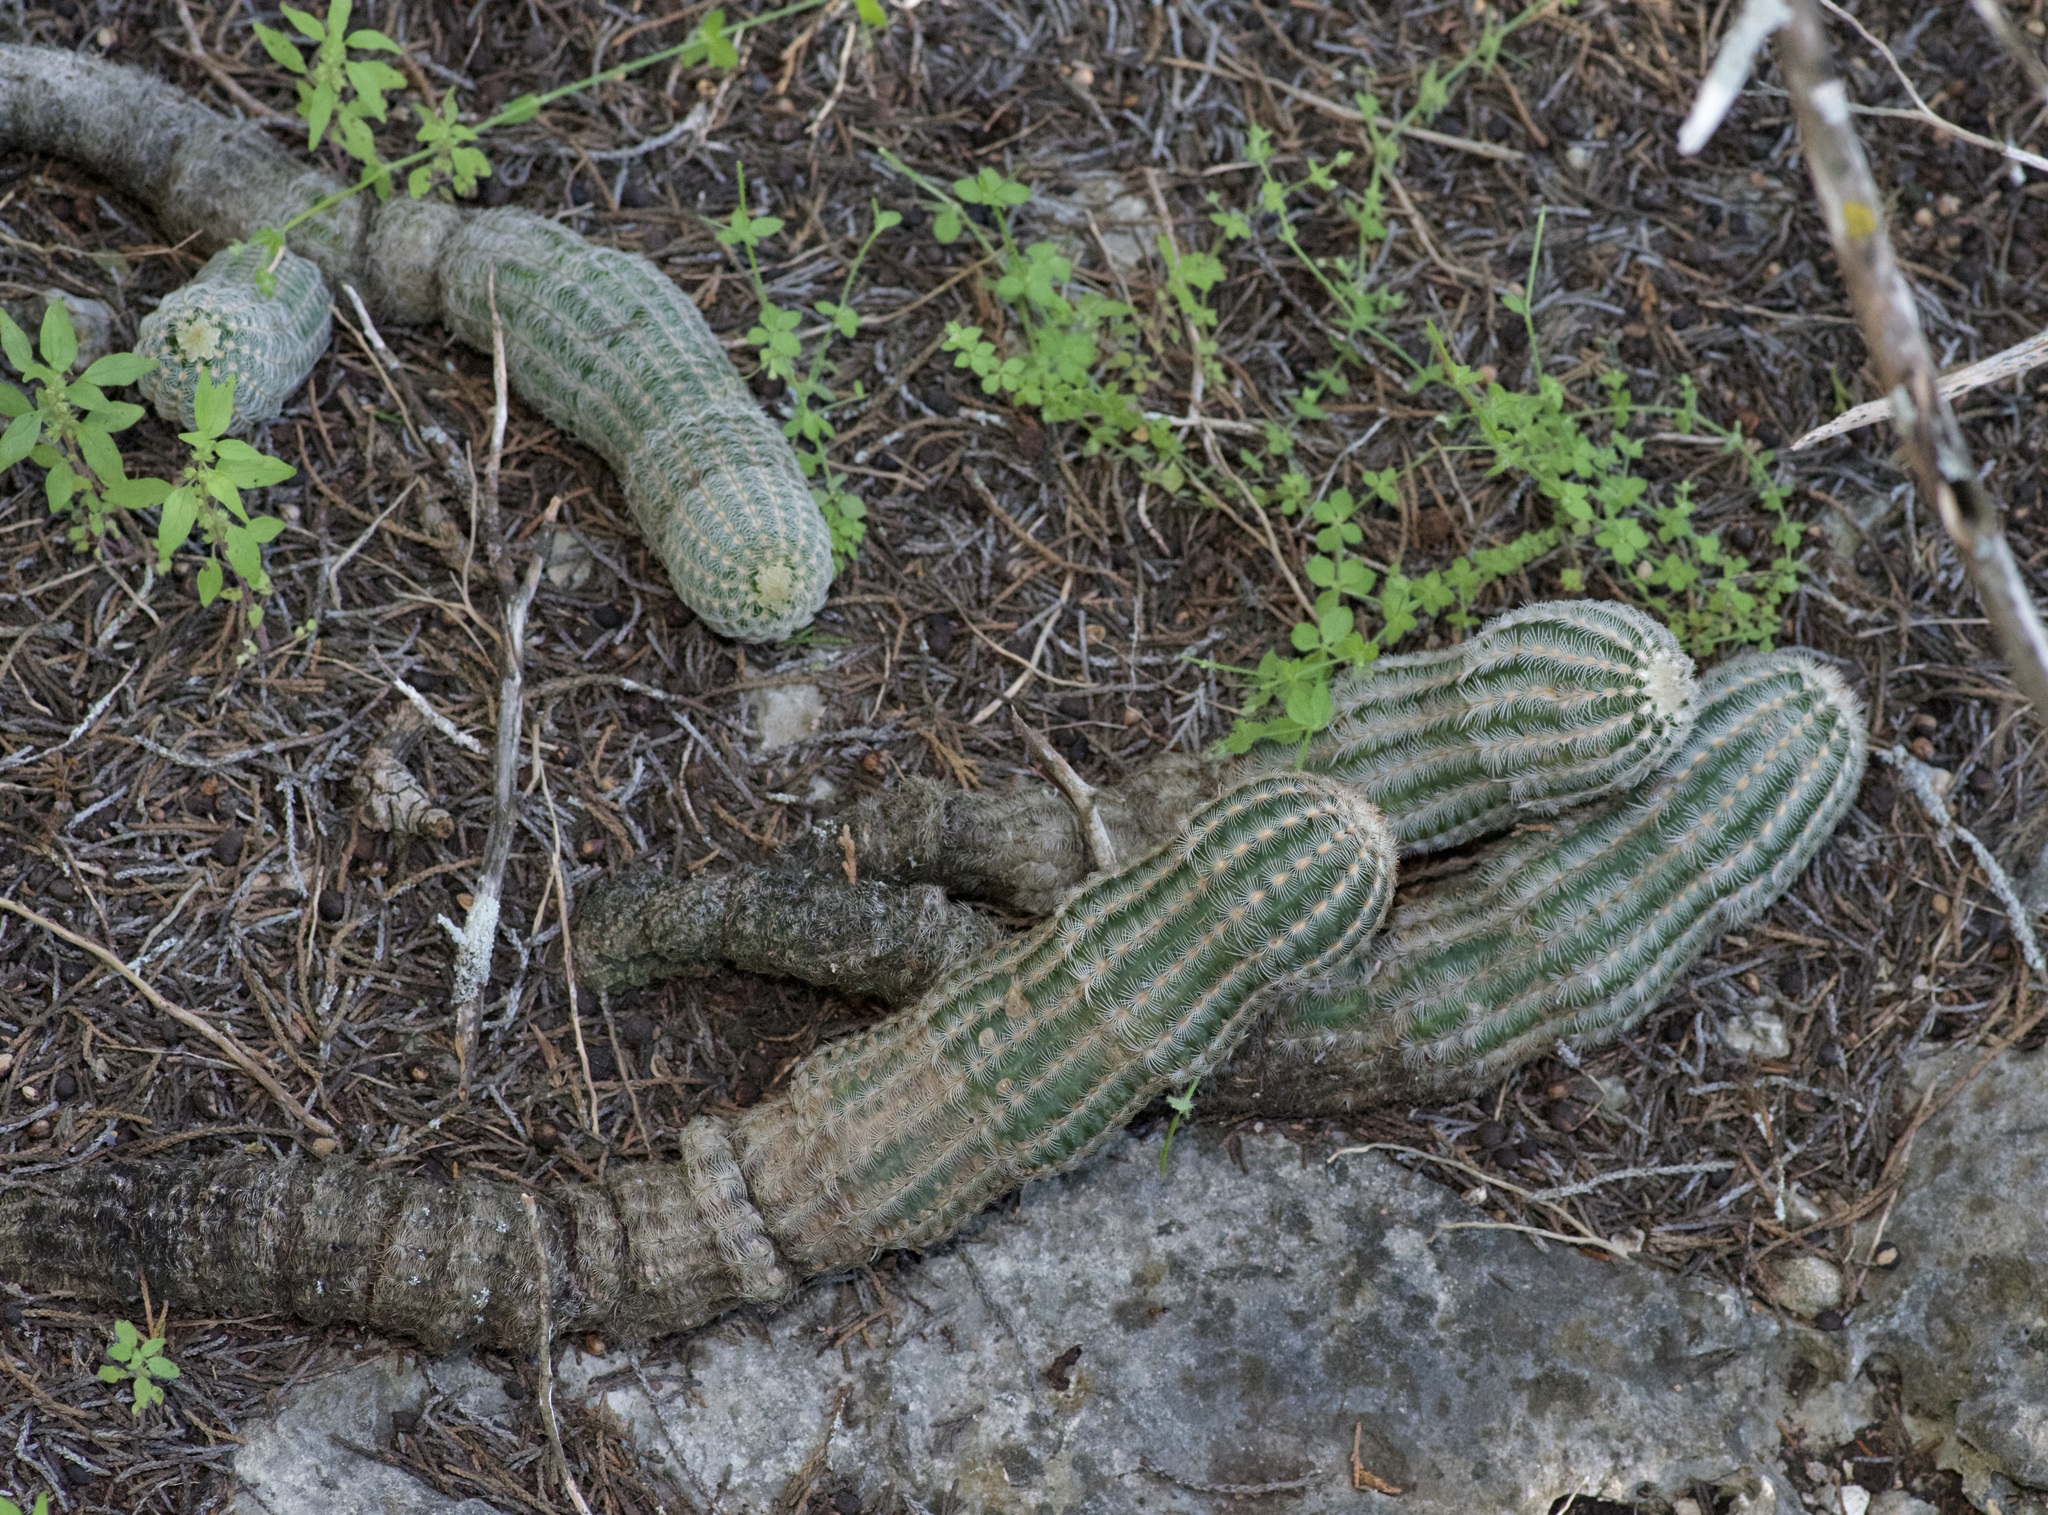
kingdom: Plantae
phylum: Tracheophyta
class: Magnoliopsida
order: Caryophyllales
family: Cactaceae
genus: Echinocereus
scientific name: Echinocereus reichenbachii
